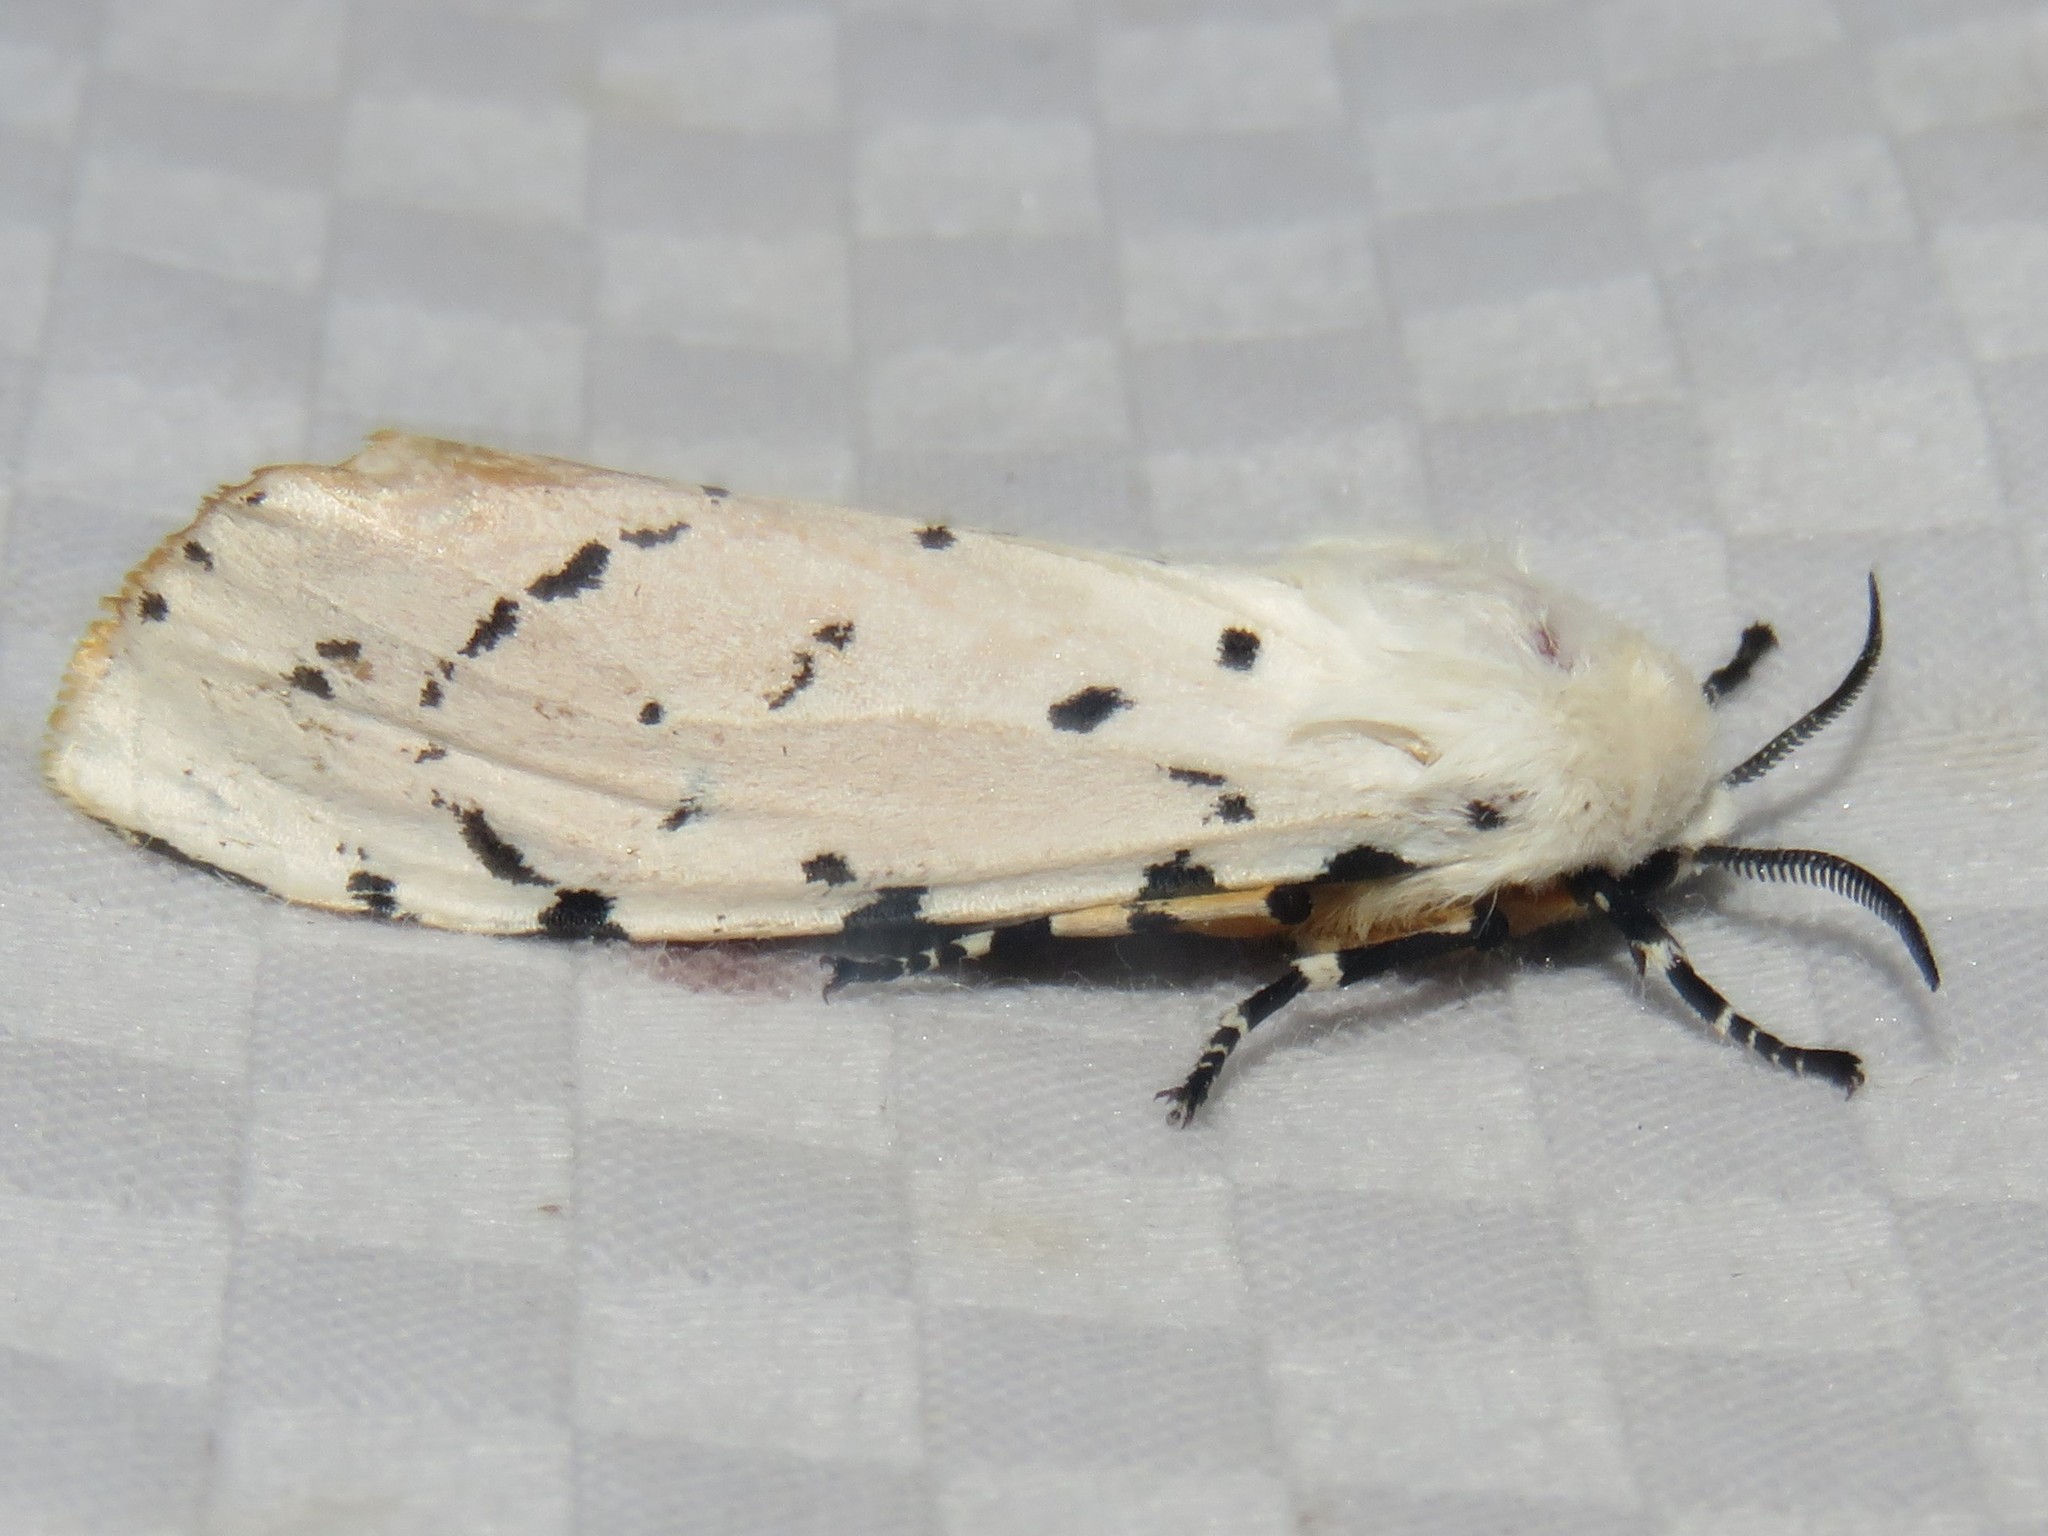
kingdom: Animalia
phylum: Arthropoda
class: Insecta
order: Lepidoptera
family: Erebidae
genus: Estigmene
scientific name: Estigmene acrea
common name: Salt marsh moth
